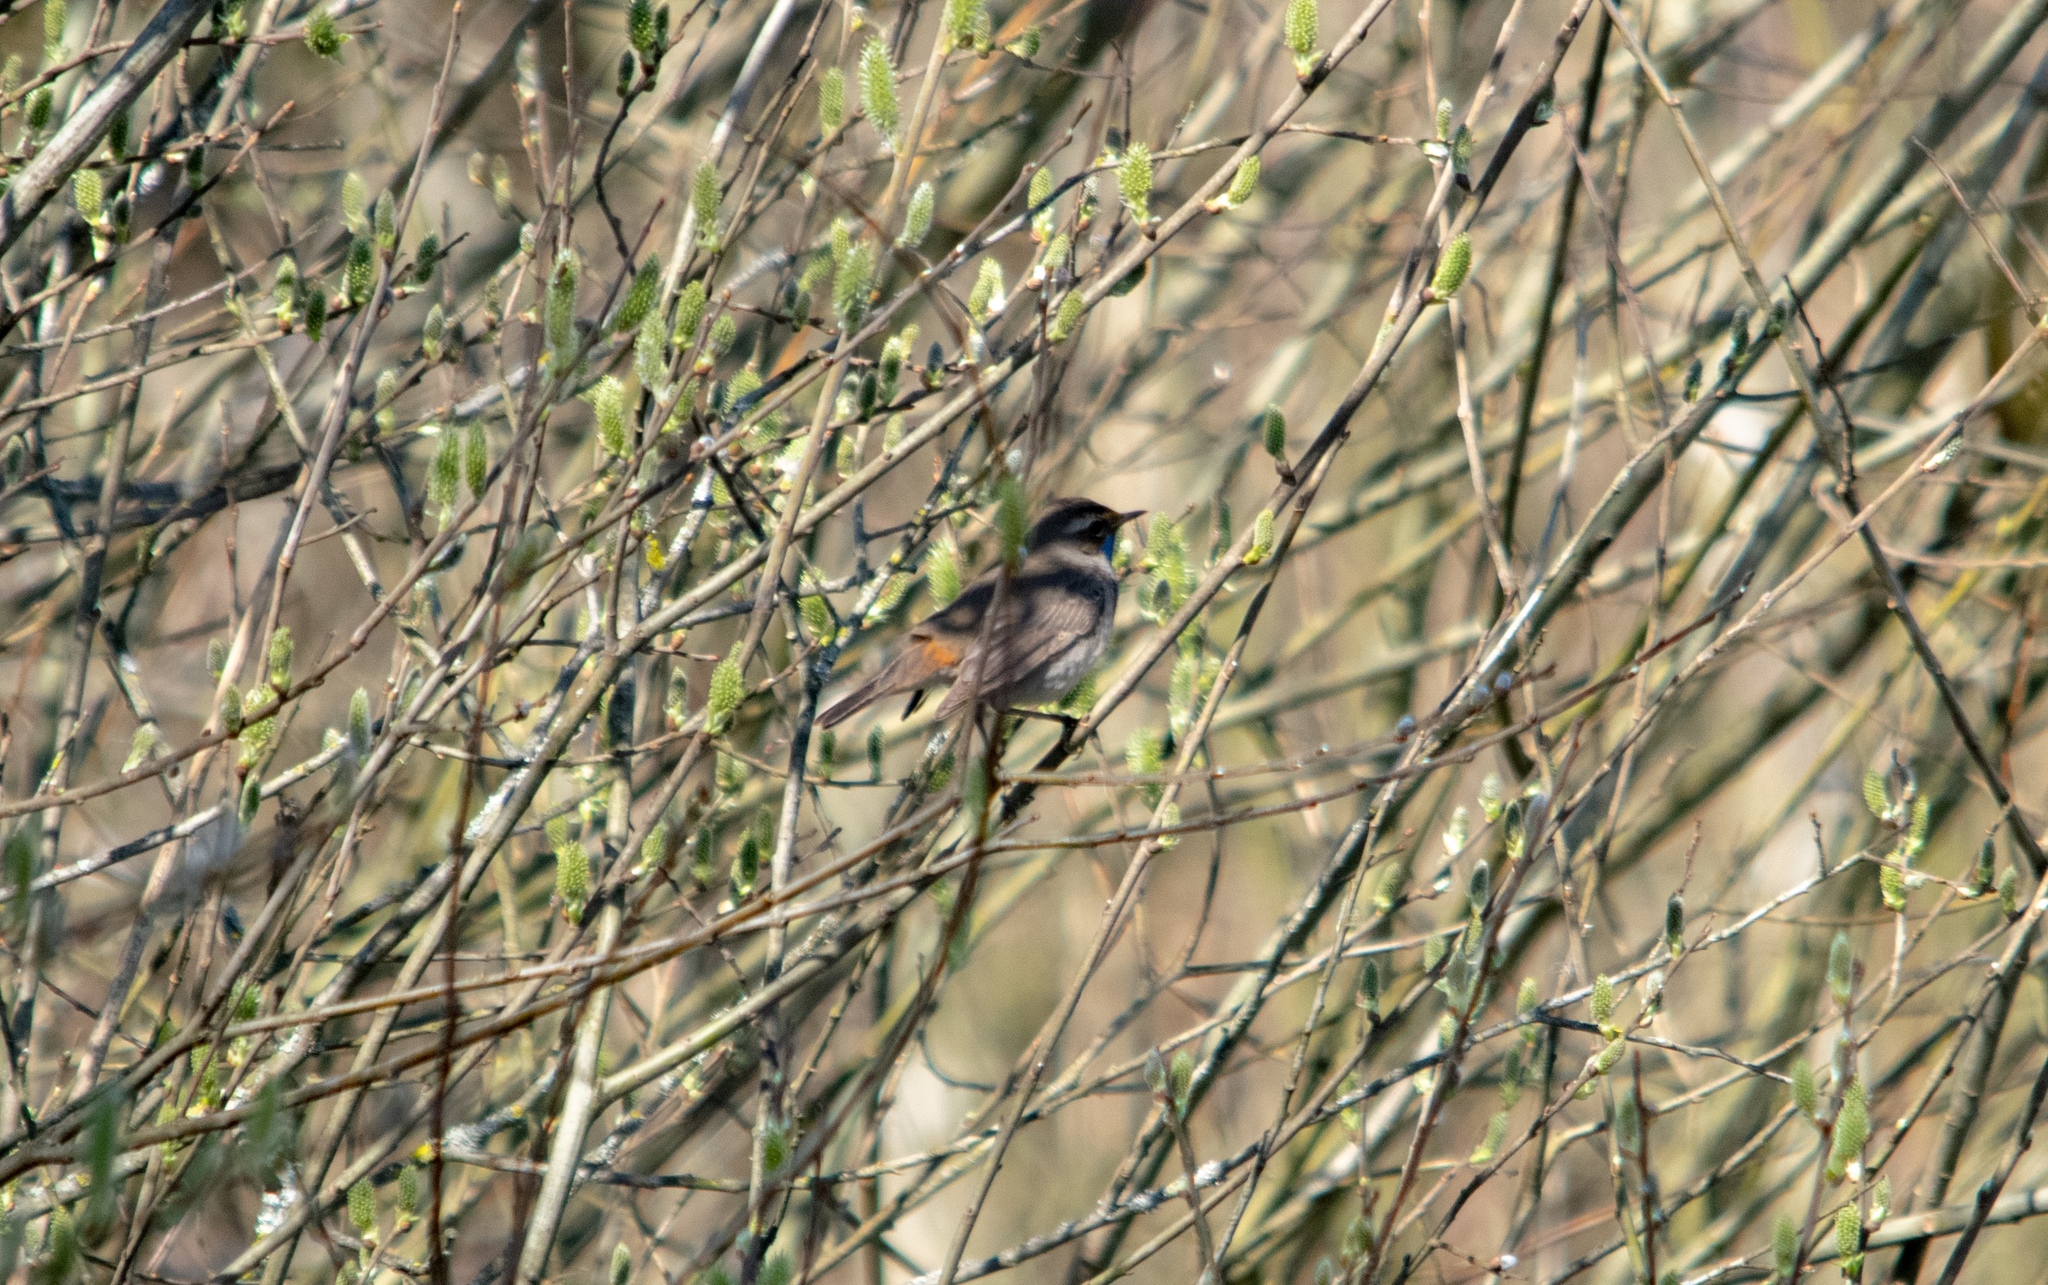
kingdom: Animalia
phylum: Chordata
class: Aves
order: Passeriformes
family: Muscicapidae
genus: Luscinia
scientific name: Luscinia svecica
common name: Bluethroat
